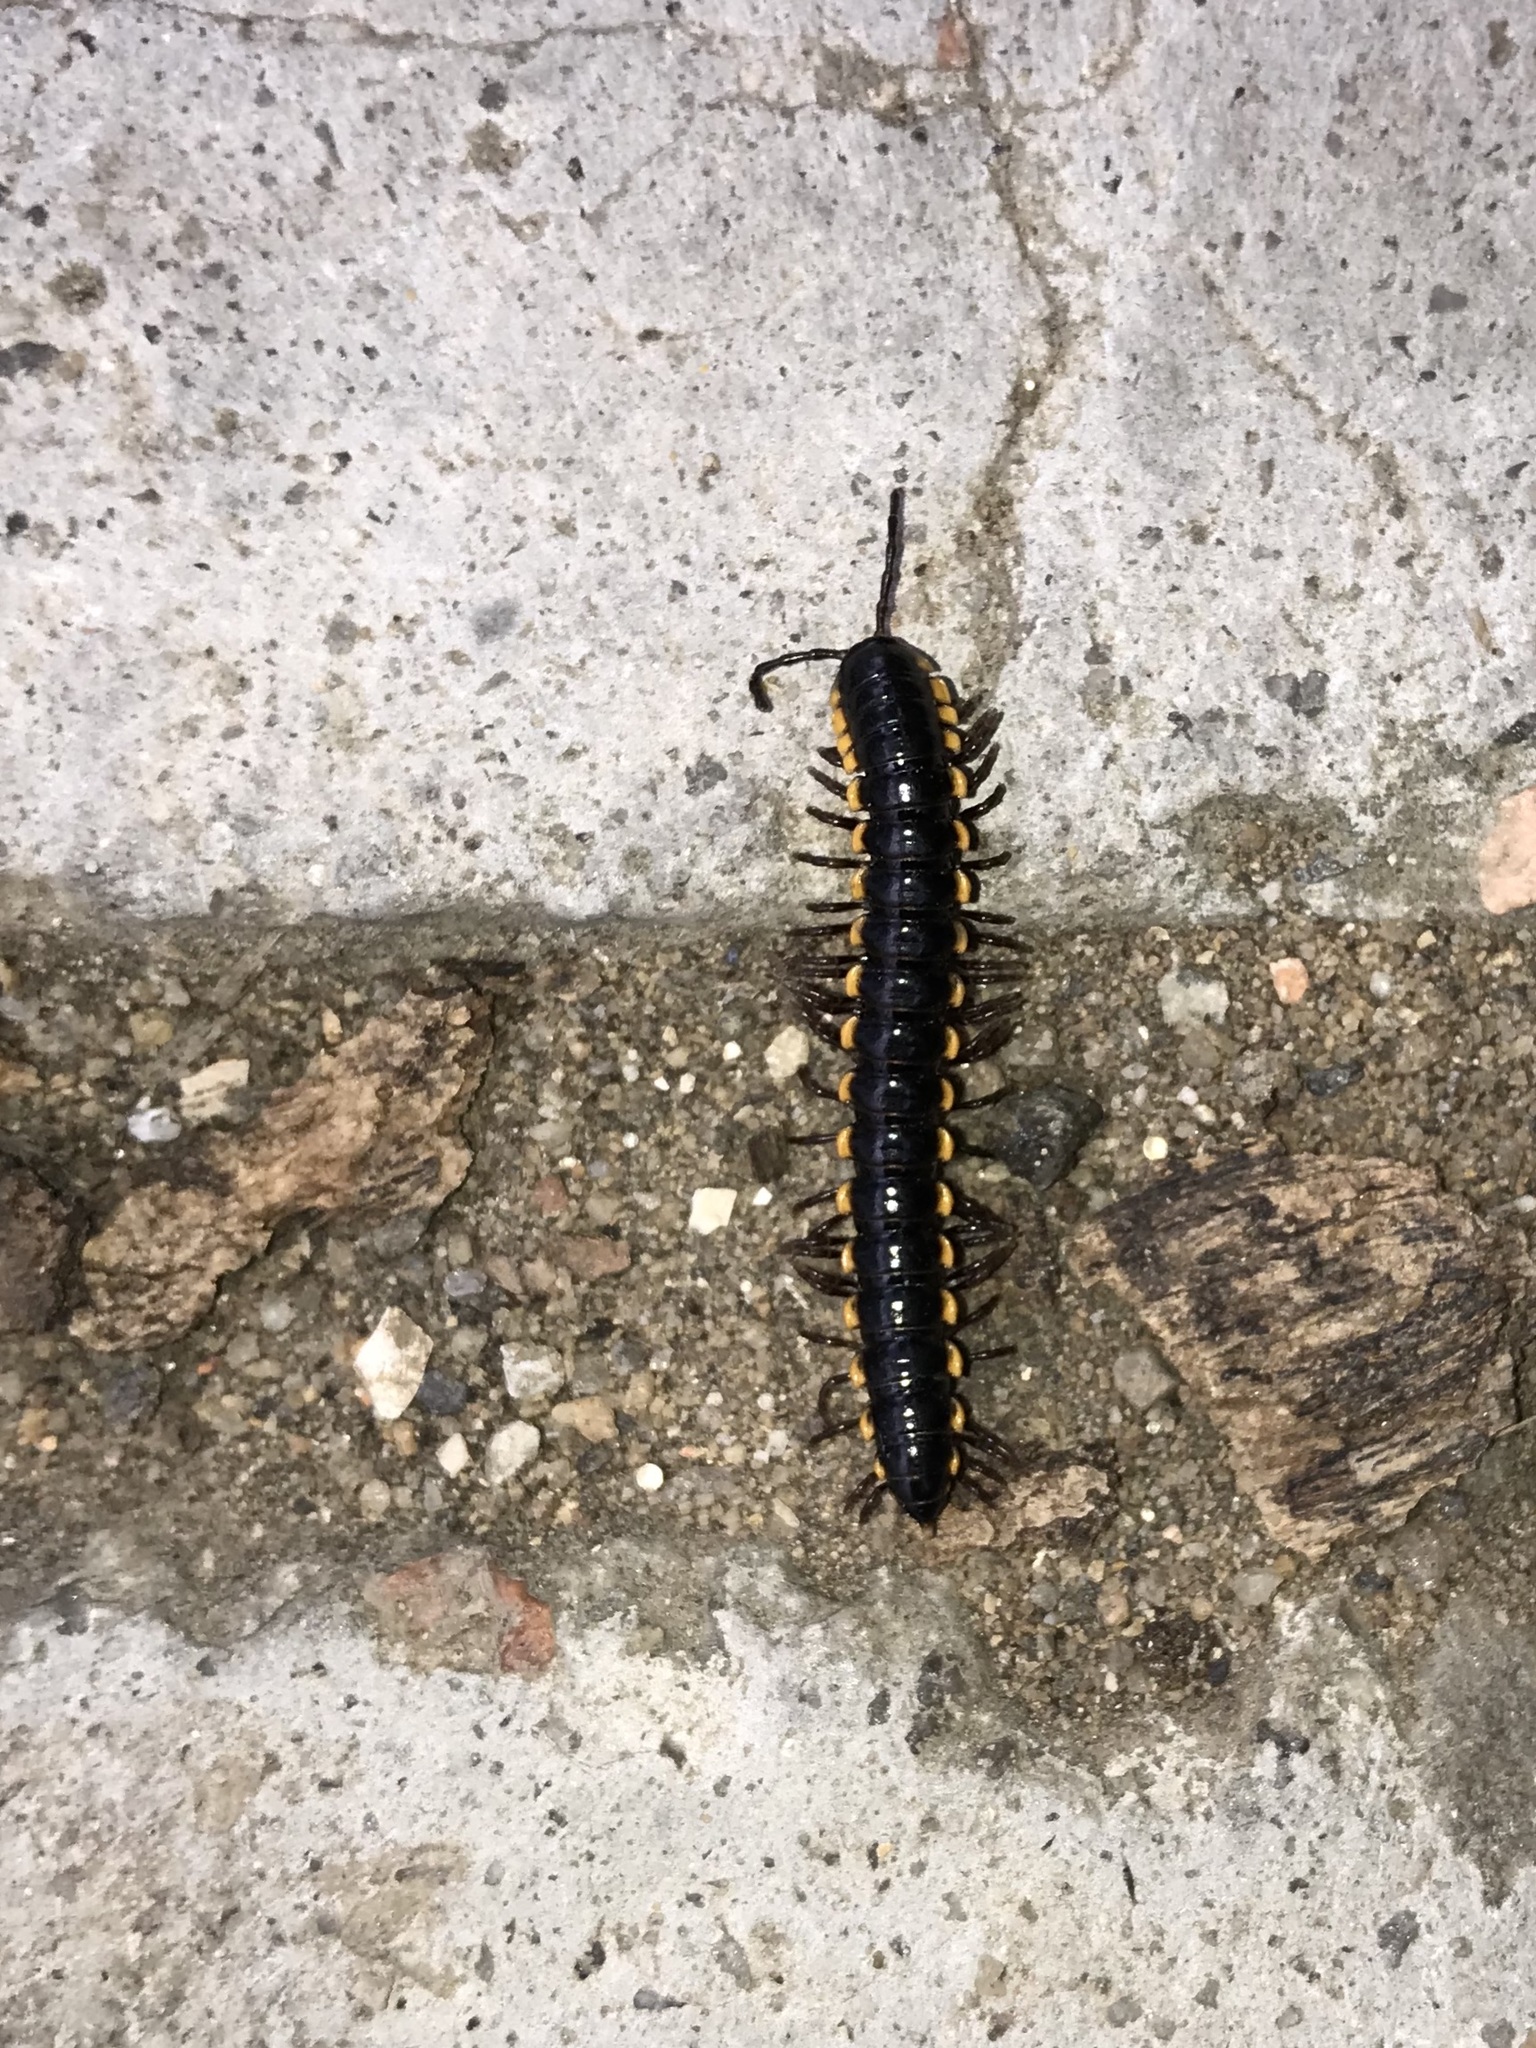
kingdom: Animalia
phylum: Arthropoda
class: Diplopoda
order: Polydesmida
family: Paradoxosomatidae
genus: Anoplodesmus
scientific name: Anoplodesmus saussurii
